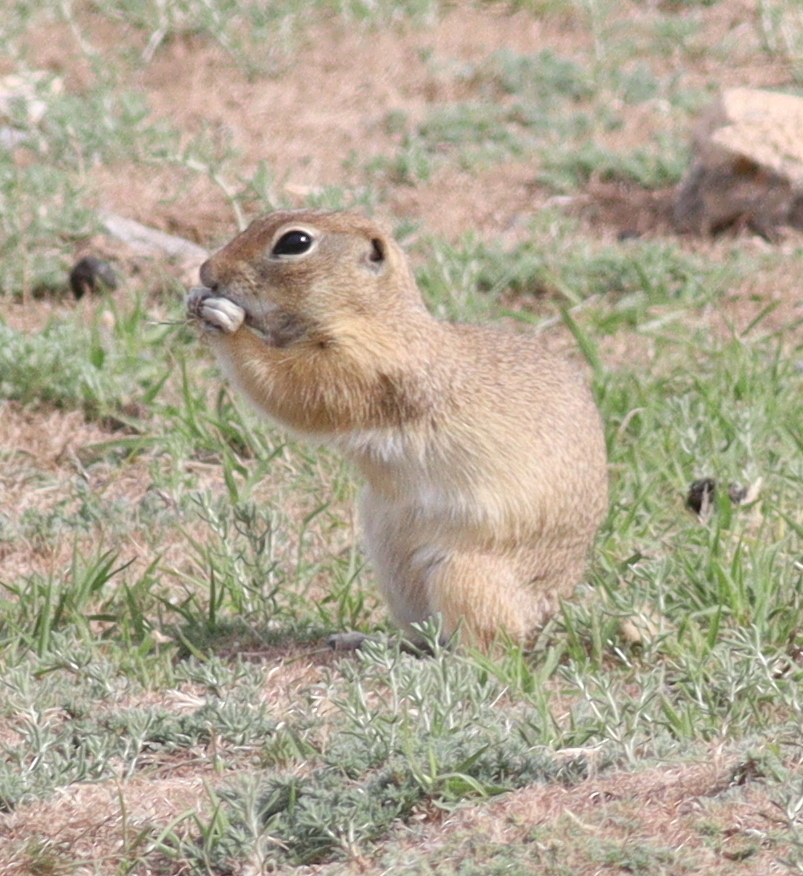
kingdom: Animalia
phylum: Chordata
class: Mammalia
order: Rodentia
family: Sciuridae
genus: Spermophilus
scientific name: Spermophilus xanthoprymnus
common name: Asia minor ground squirrel
